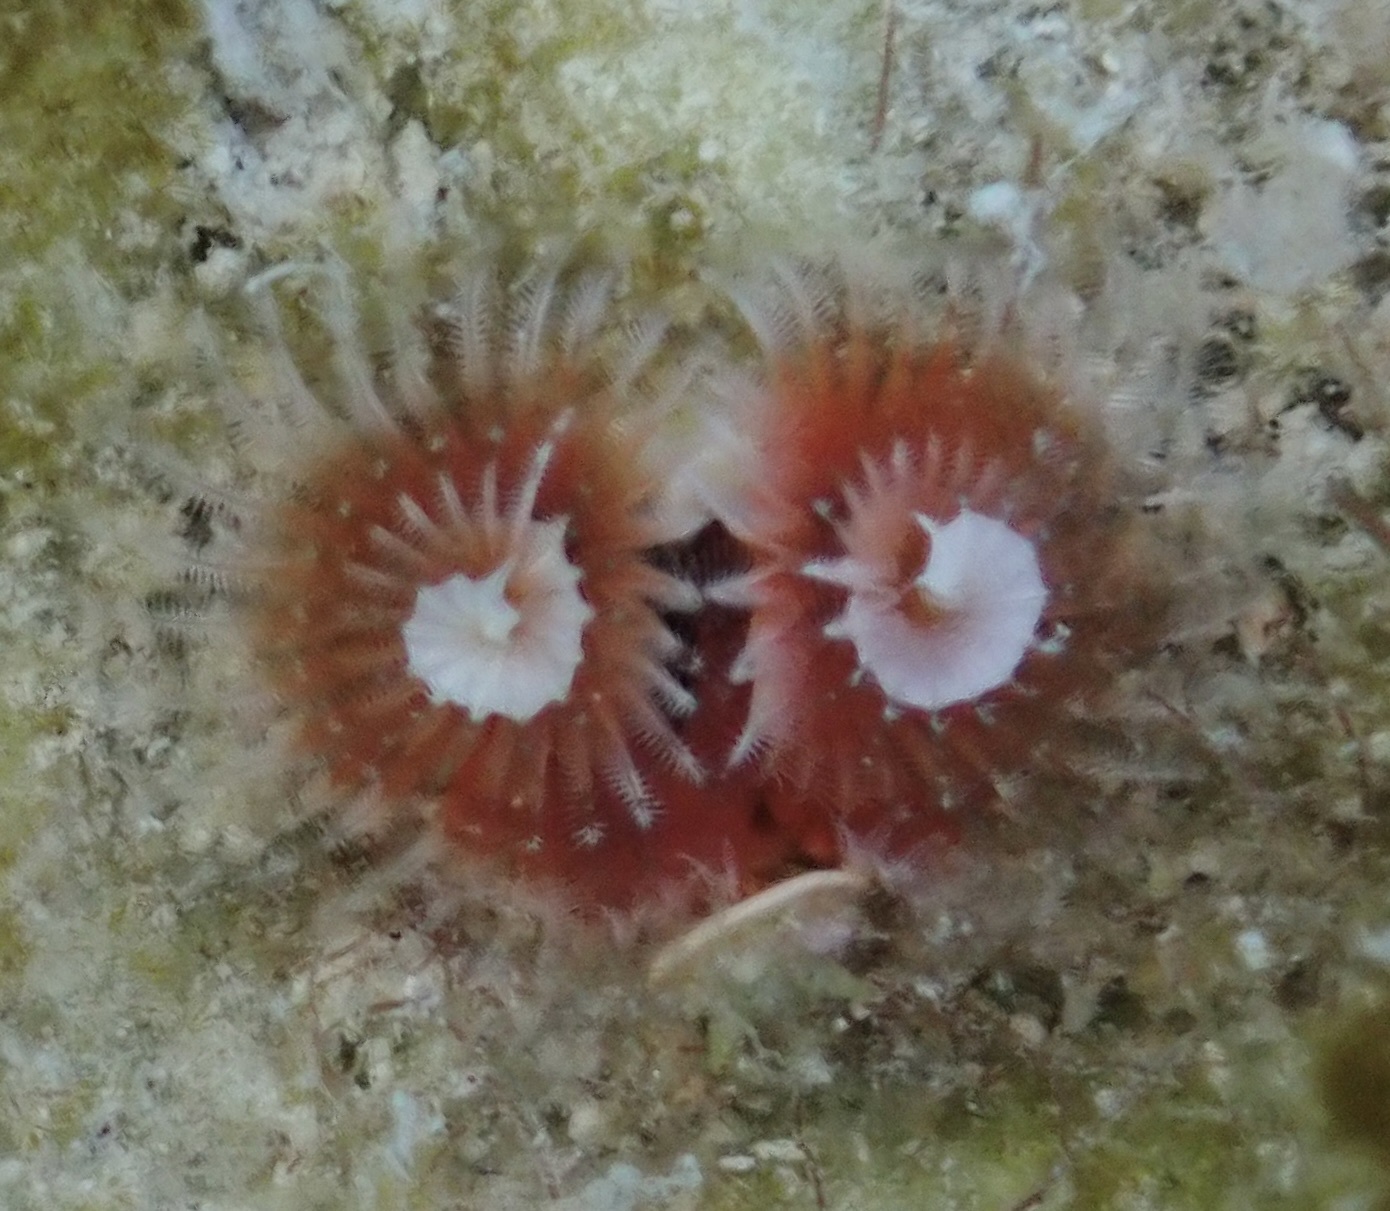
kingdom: Animalia
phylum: Annelida
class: Polychaeta
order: Sabellida
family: Serpulidae
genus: Spirobranchus
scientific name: Spirobranchus giganteus
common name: Christmas tree worm
